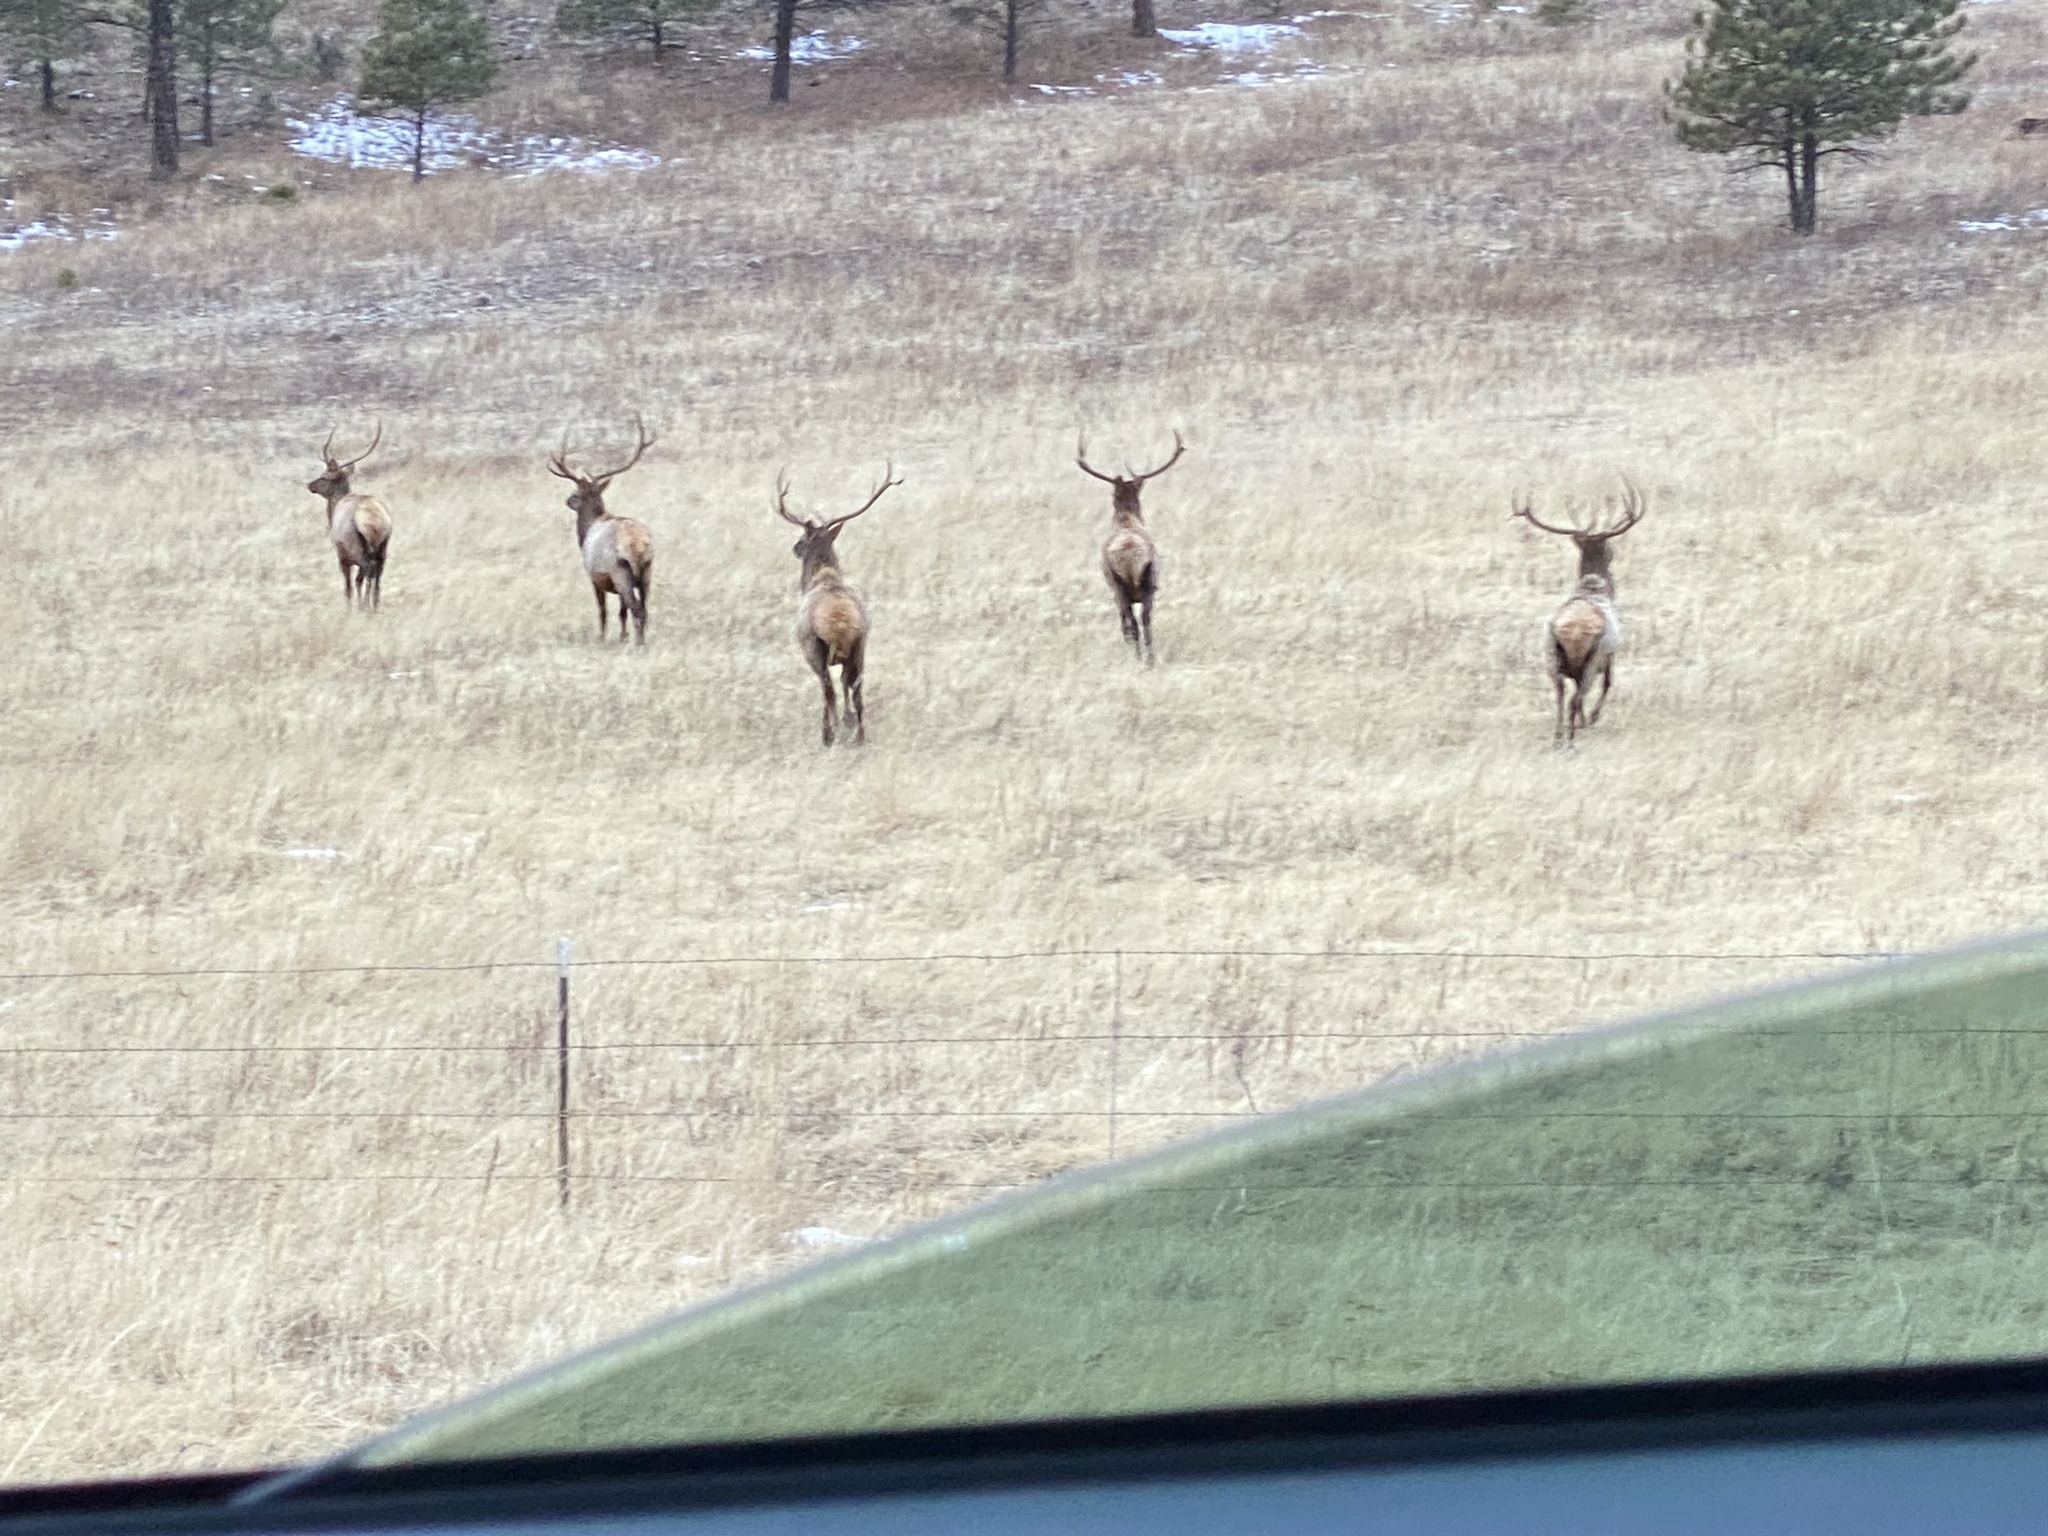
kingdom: Animalia
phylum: Chordata
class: Mammalia
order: Artiodactyla
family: Cervidae
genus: Cervus
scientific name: Cervus elaphus
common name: Red deer
